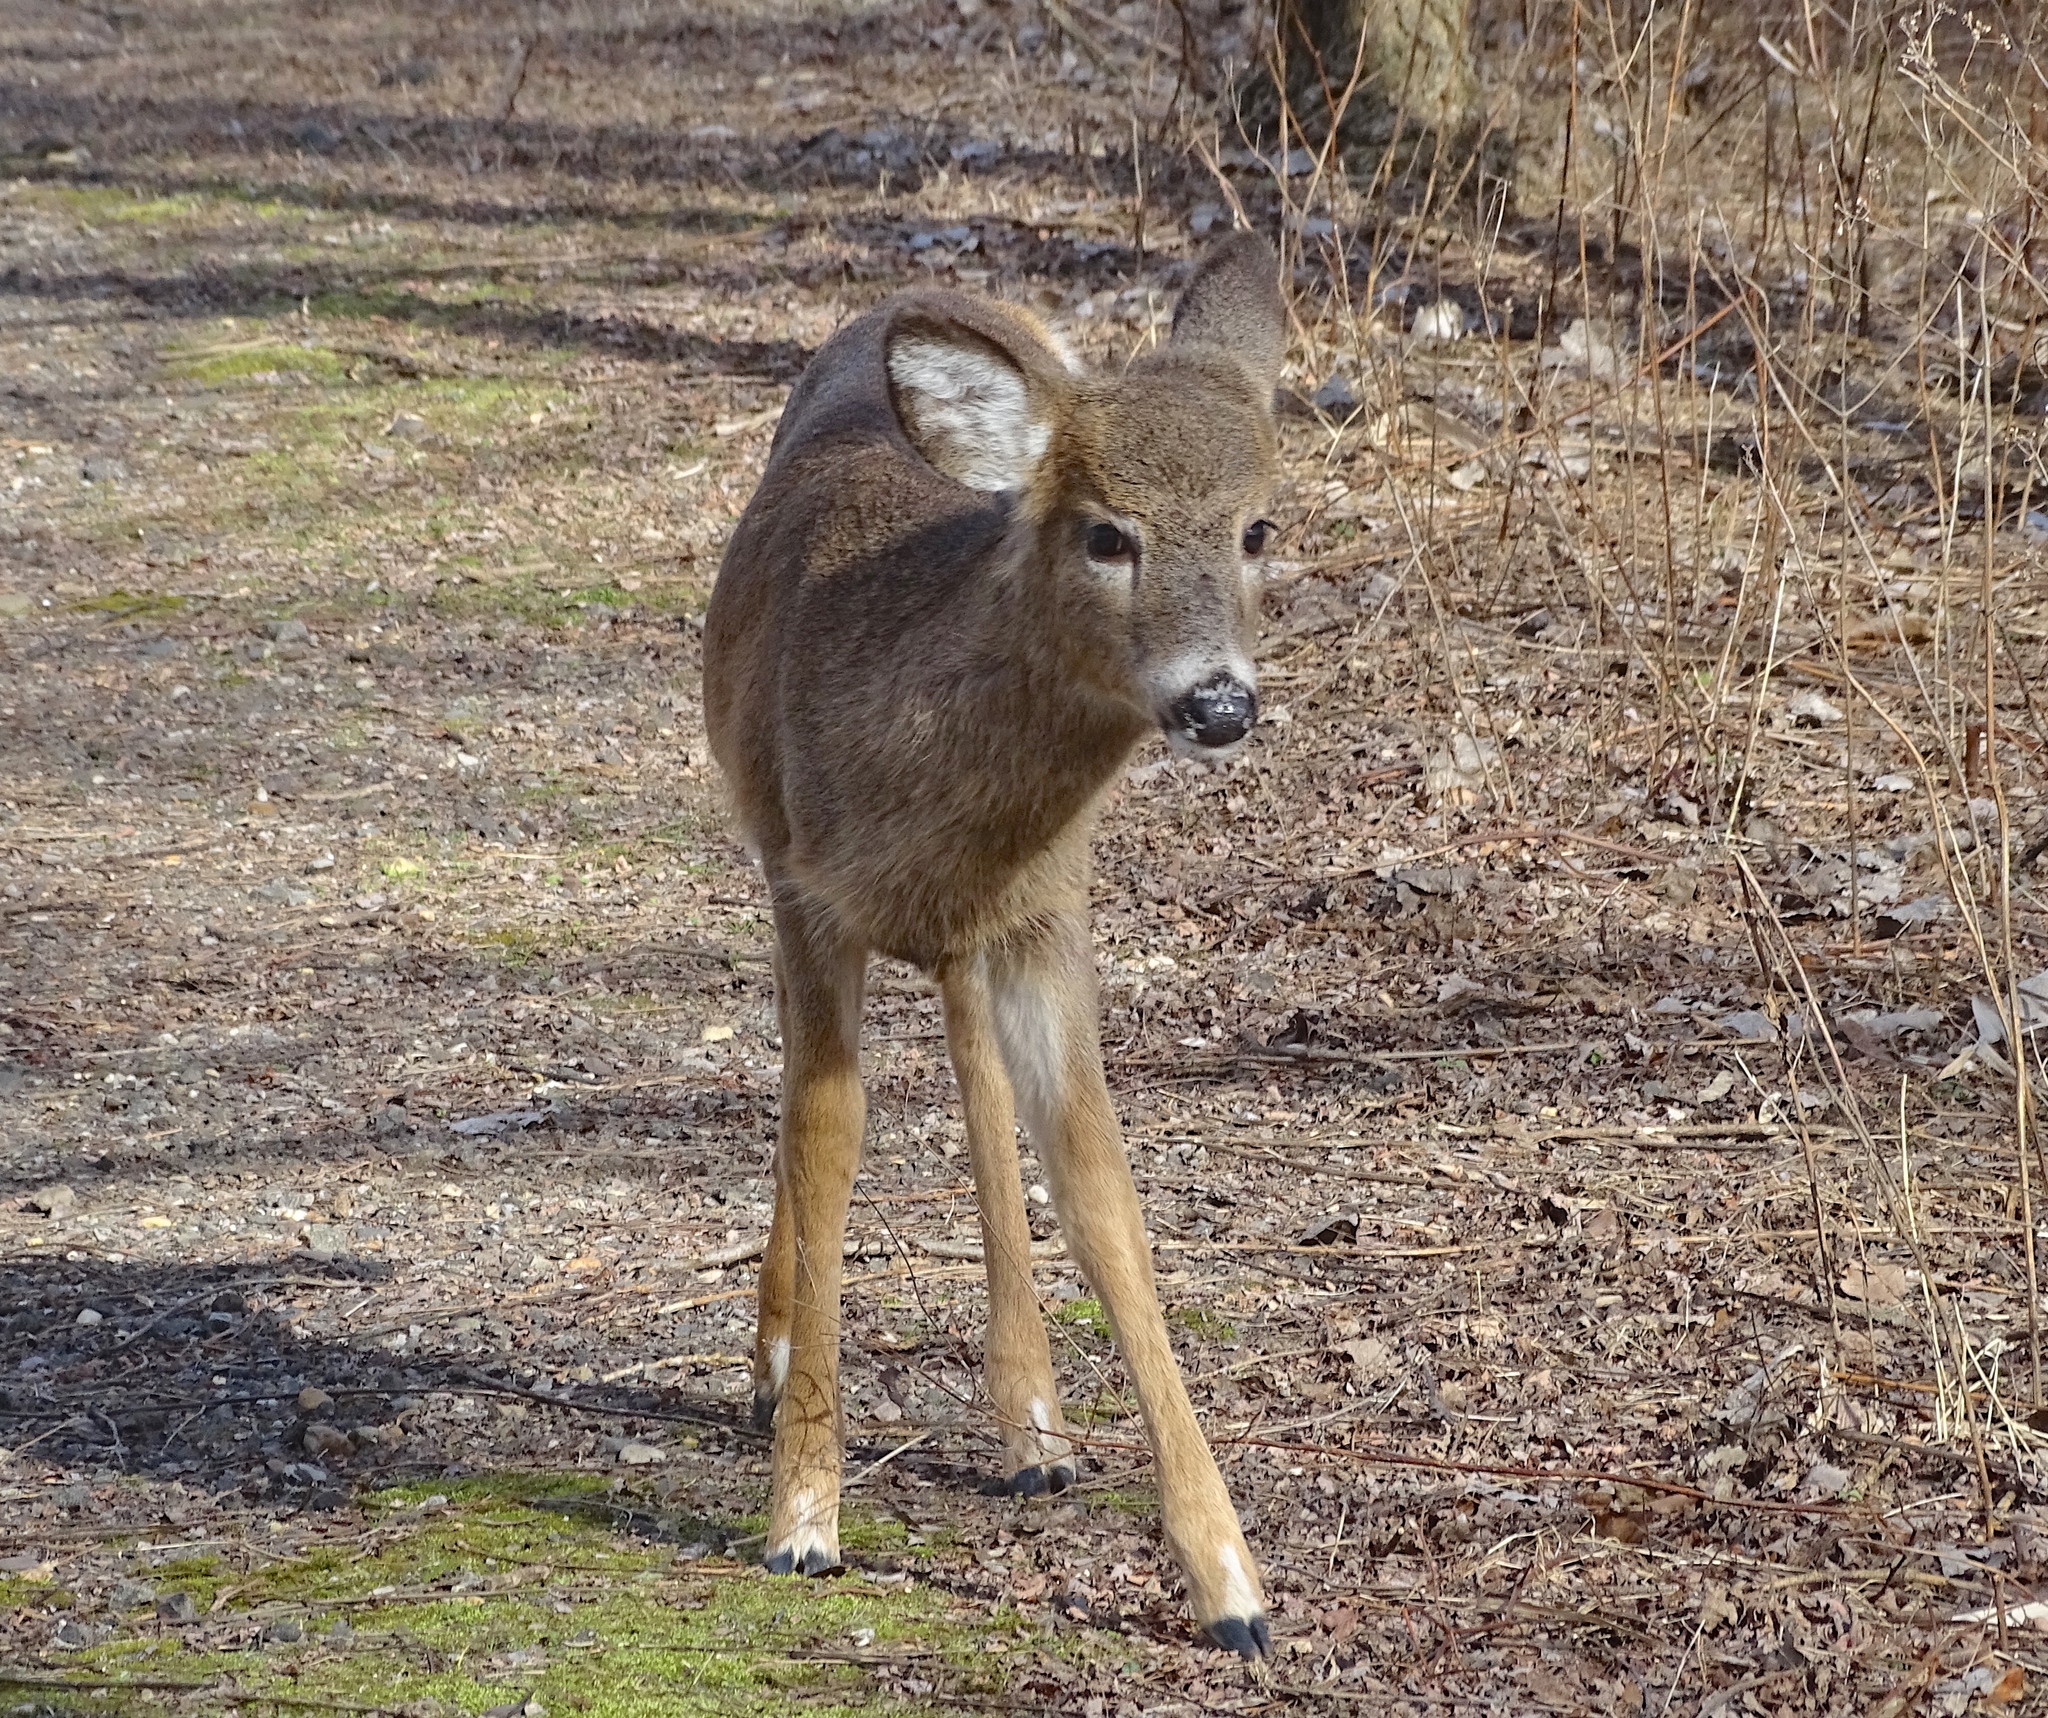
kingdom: Animalia
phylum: Chordata
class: Mammalia
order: Artiodactyla
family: Cervidae
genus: Odocoileus
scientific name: Odocoileus virginianus
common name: White-tailed deer
